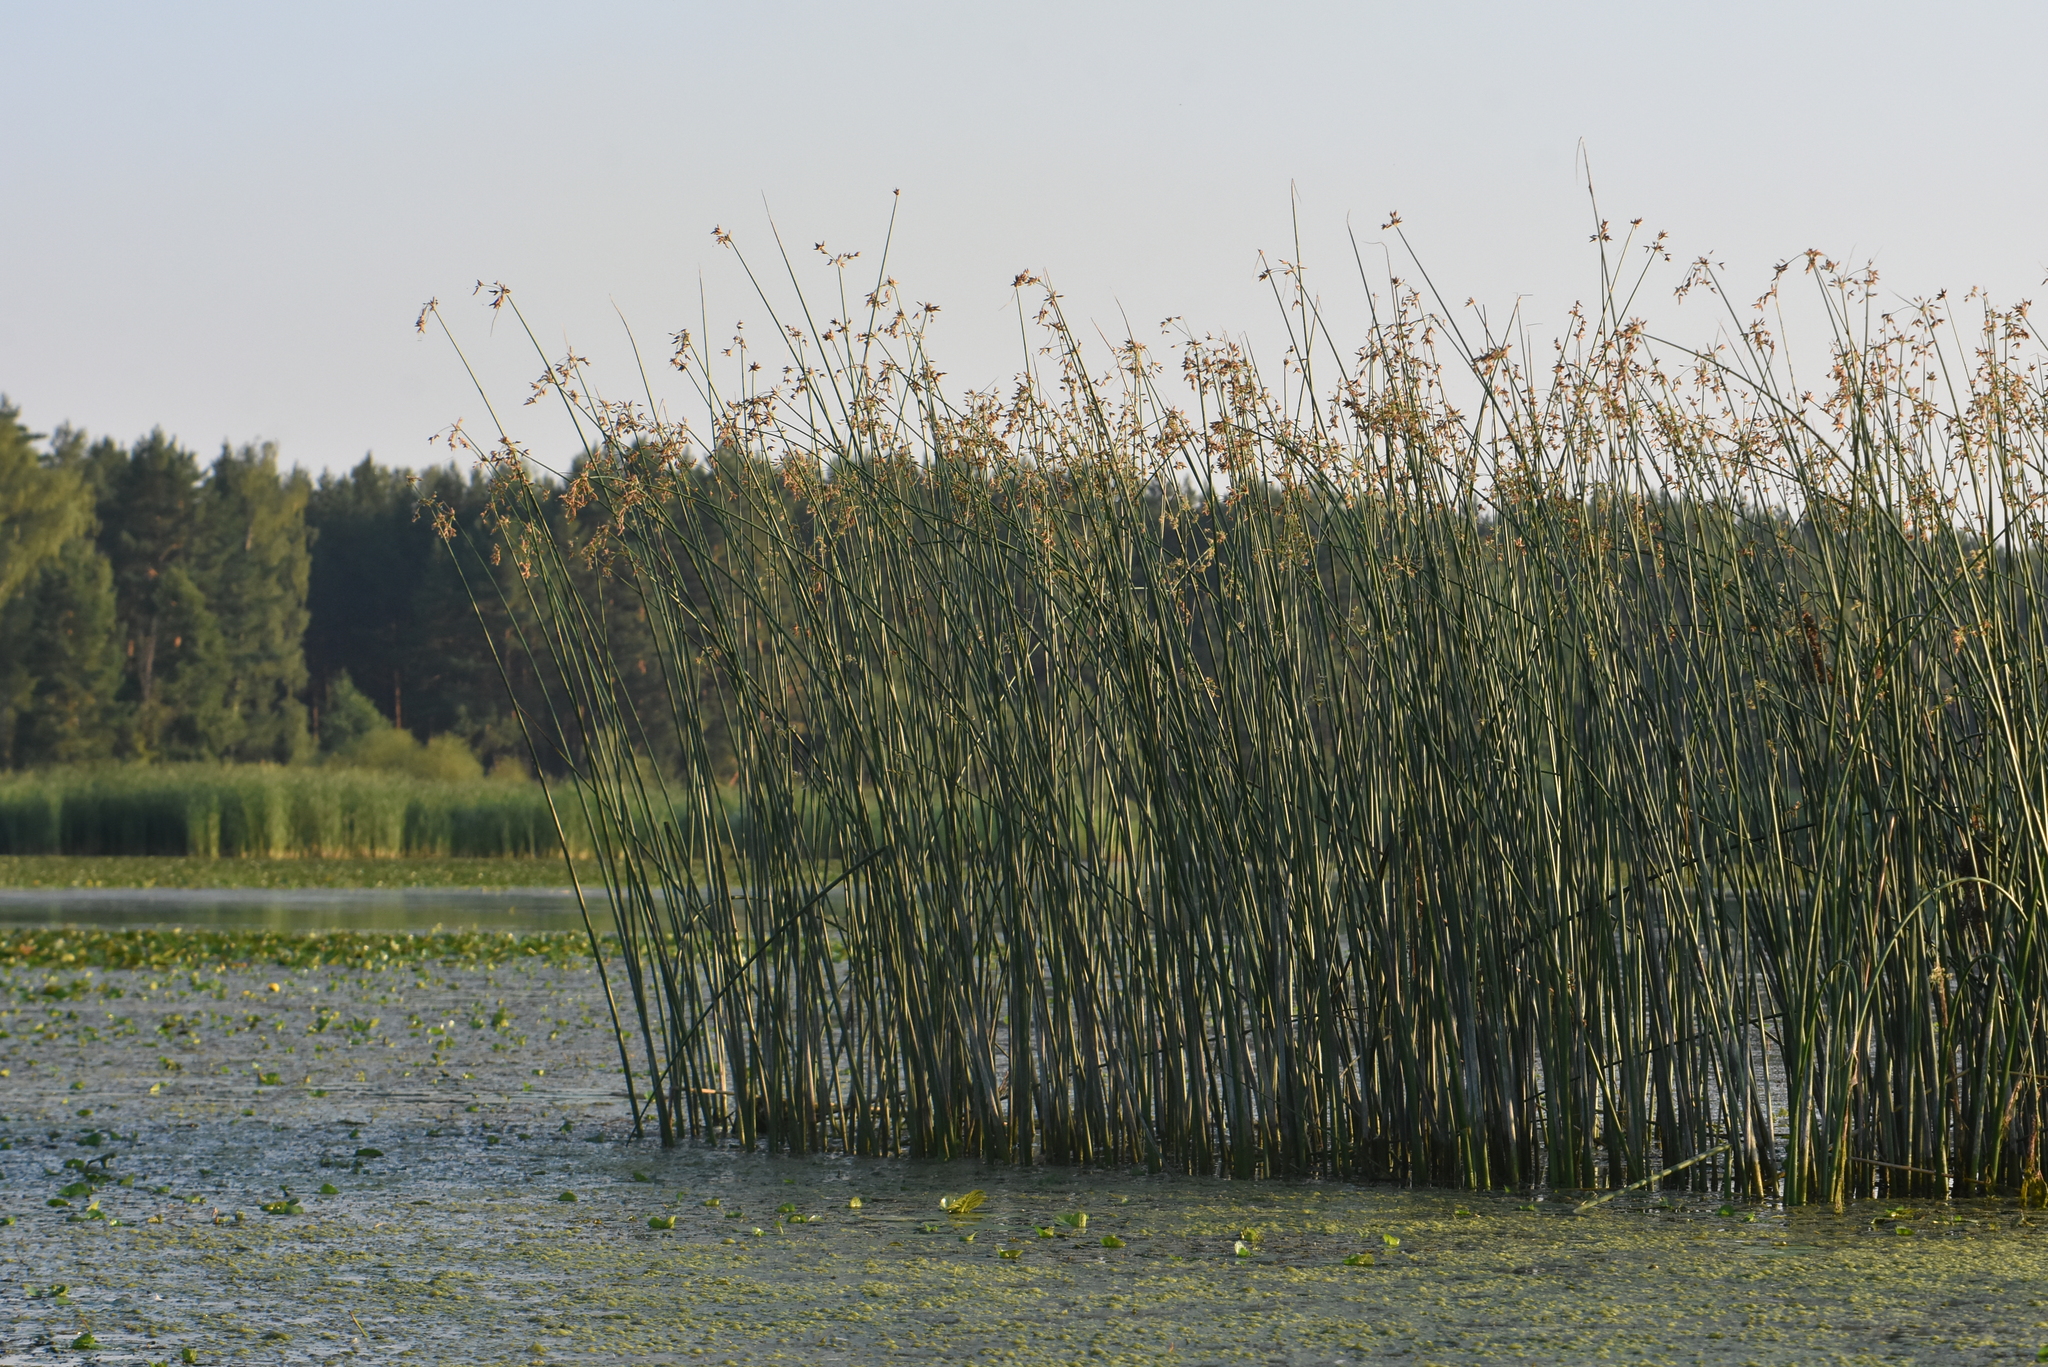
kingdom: Plantae
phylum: Tracheophyta
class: Liliopsida
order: Poales
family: Cyperaceae
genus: Schoenoplectus
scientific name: Schoenoplectus lacustris
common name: Common club-rush
